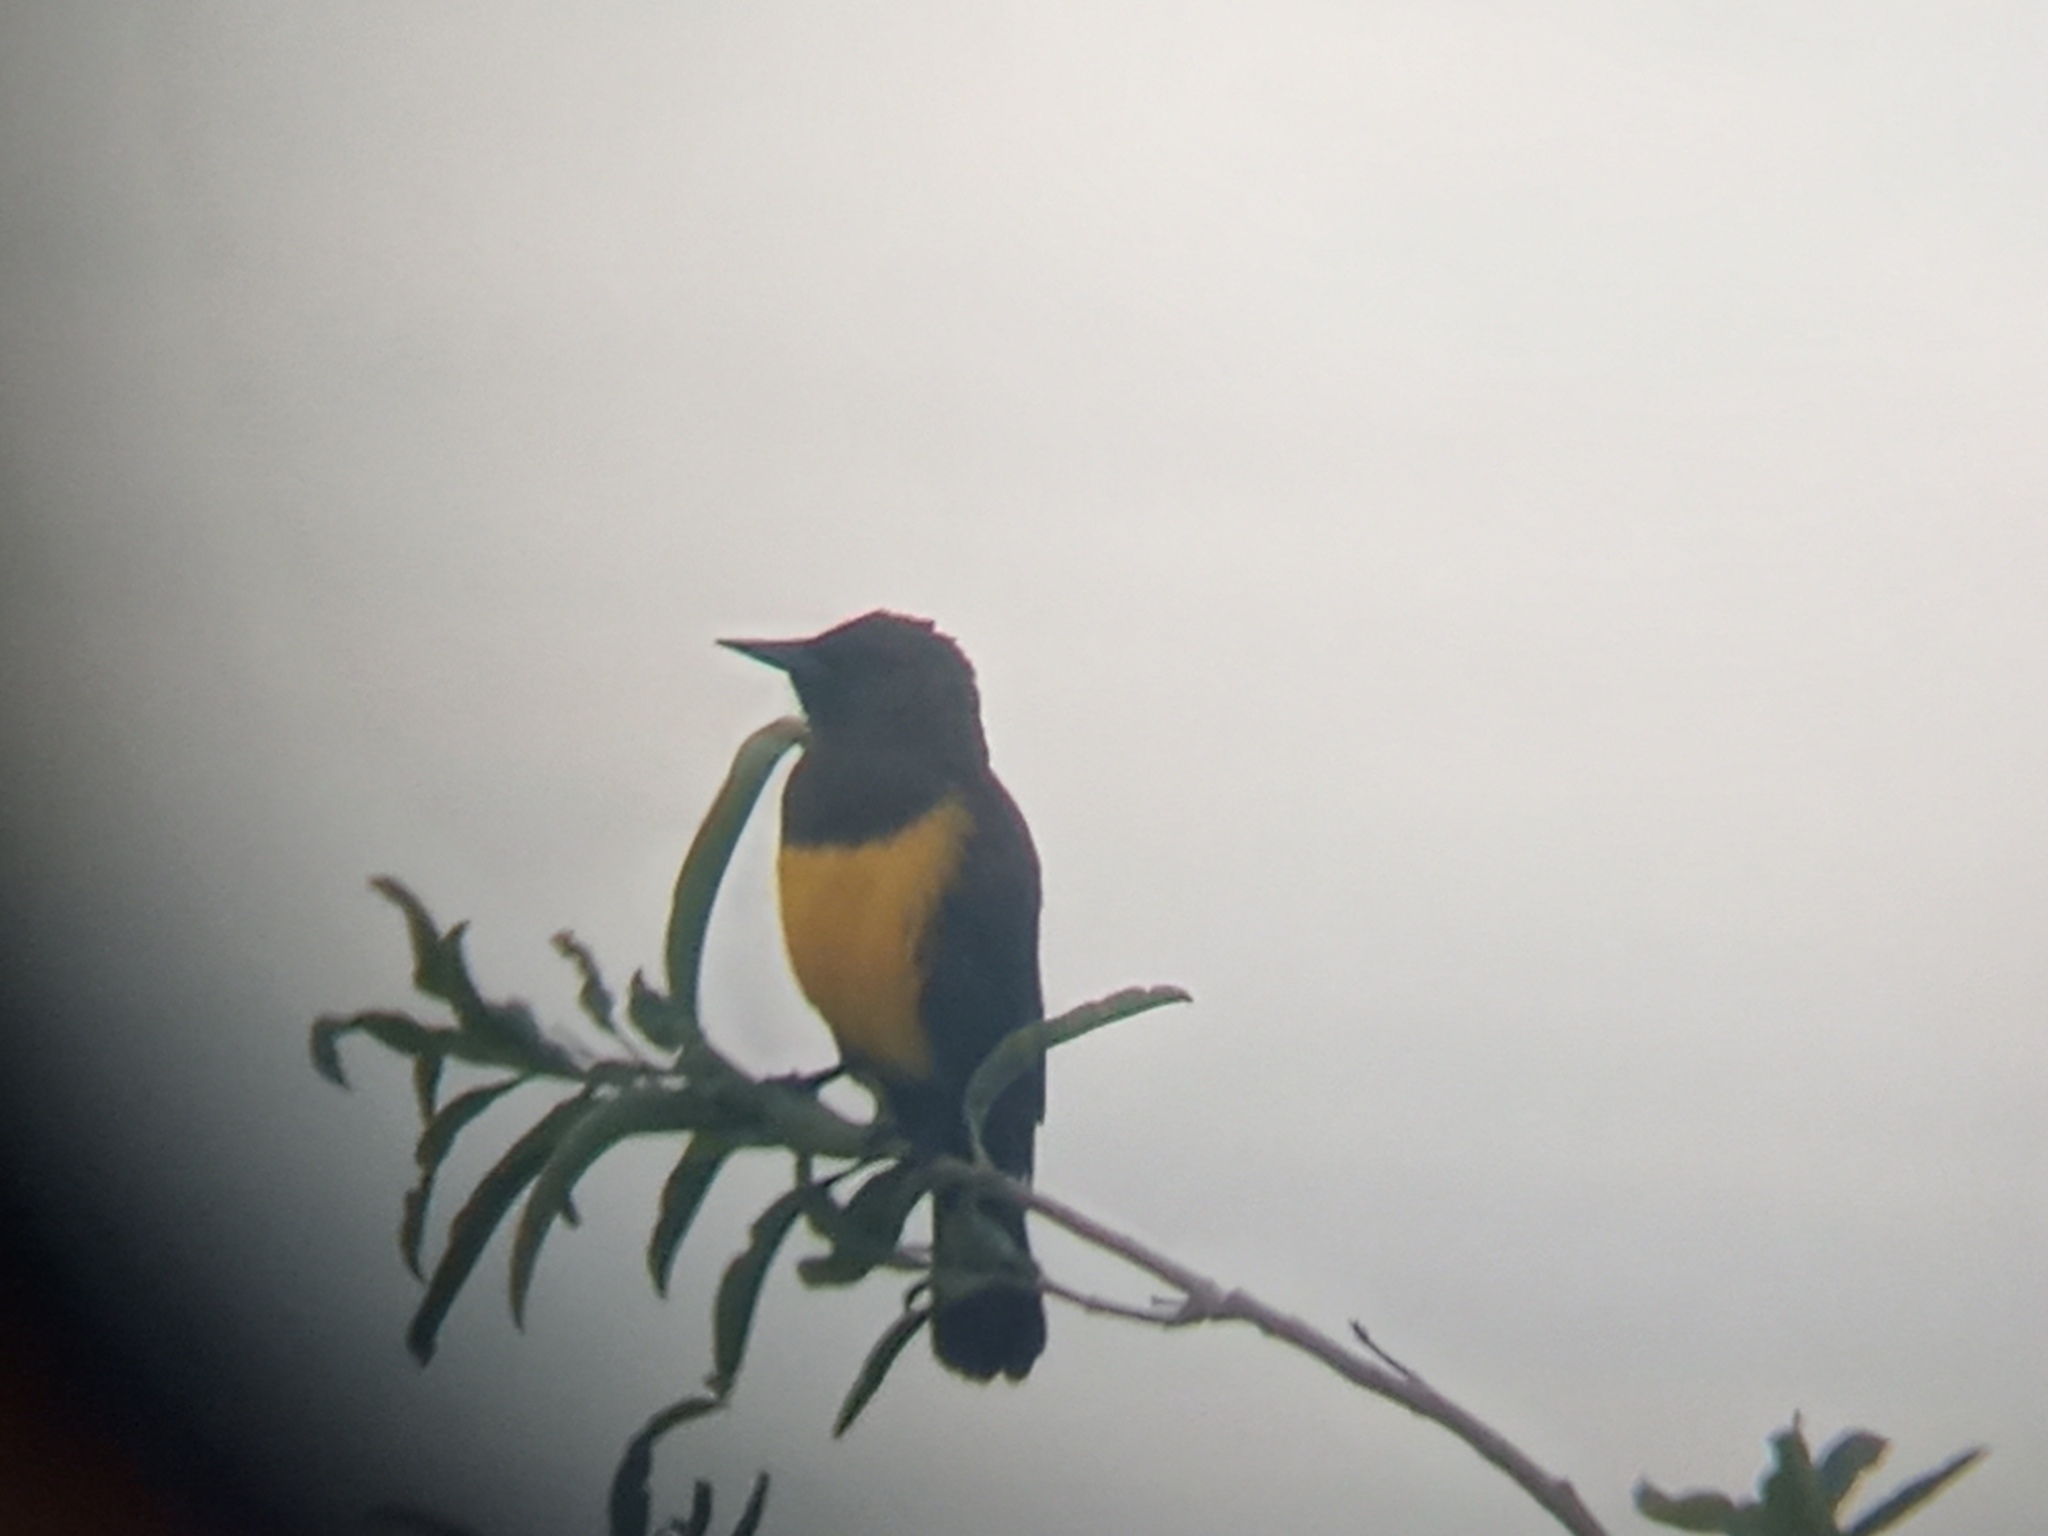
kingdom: Animalia
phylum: Chordata
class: Aves
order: Passeriformes
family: Icteridae
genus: Pseudoleistes
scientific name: Pseudoleistes virescens
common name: Brown-and-yellow marshbird
